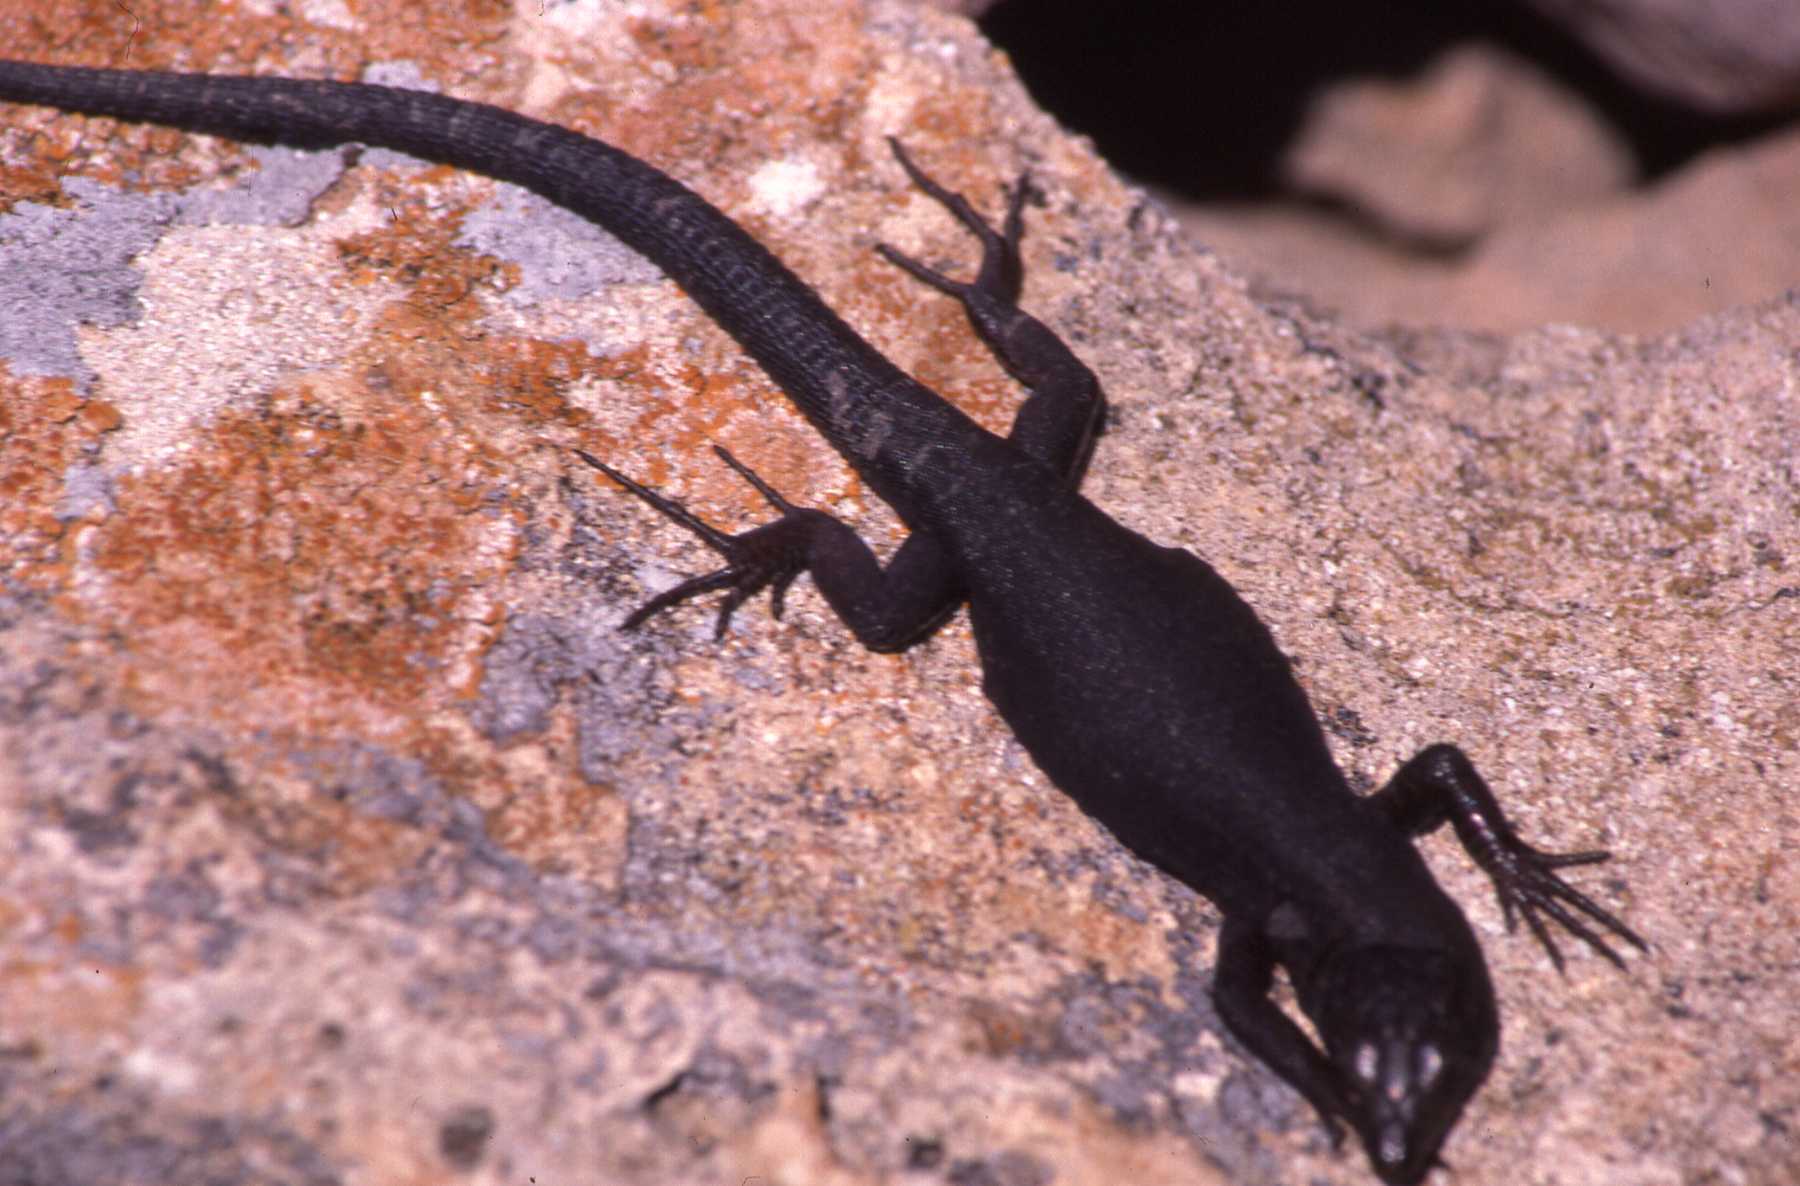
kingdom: Animalia
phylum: Chordata
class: Squamata
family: Lacertidae
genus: Podarcis
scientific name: Podarcis lilfordi
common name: Belearic lizard
